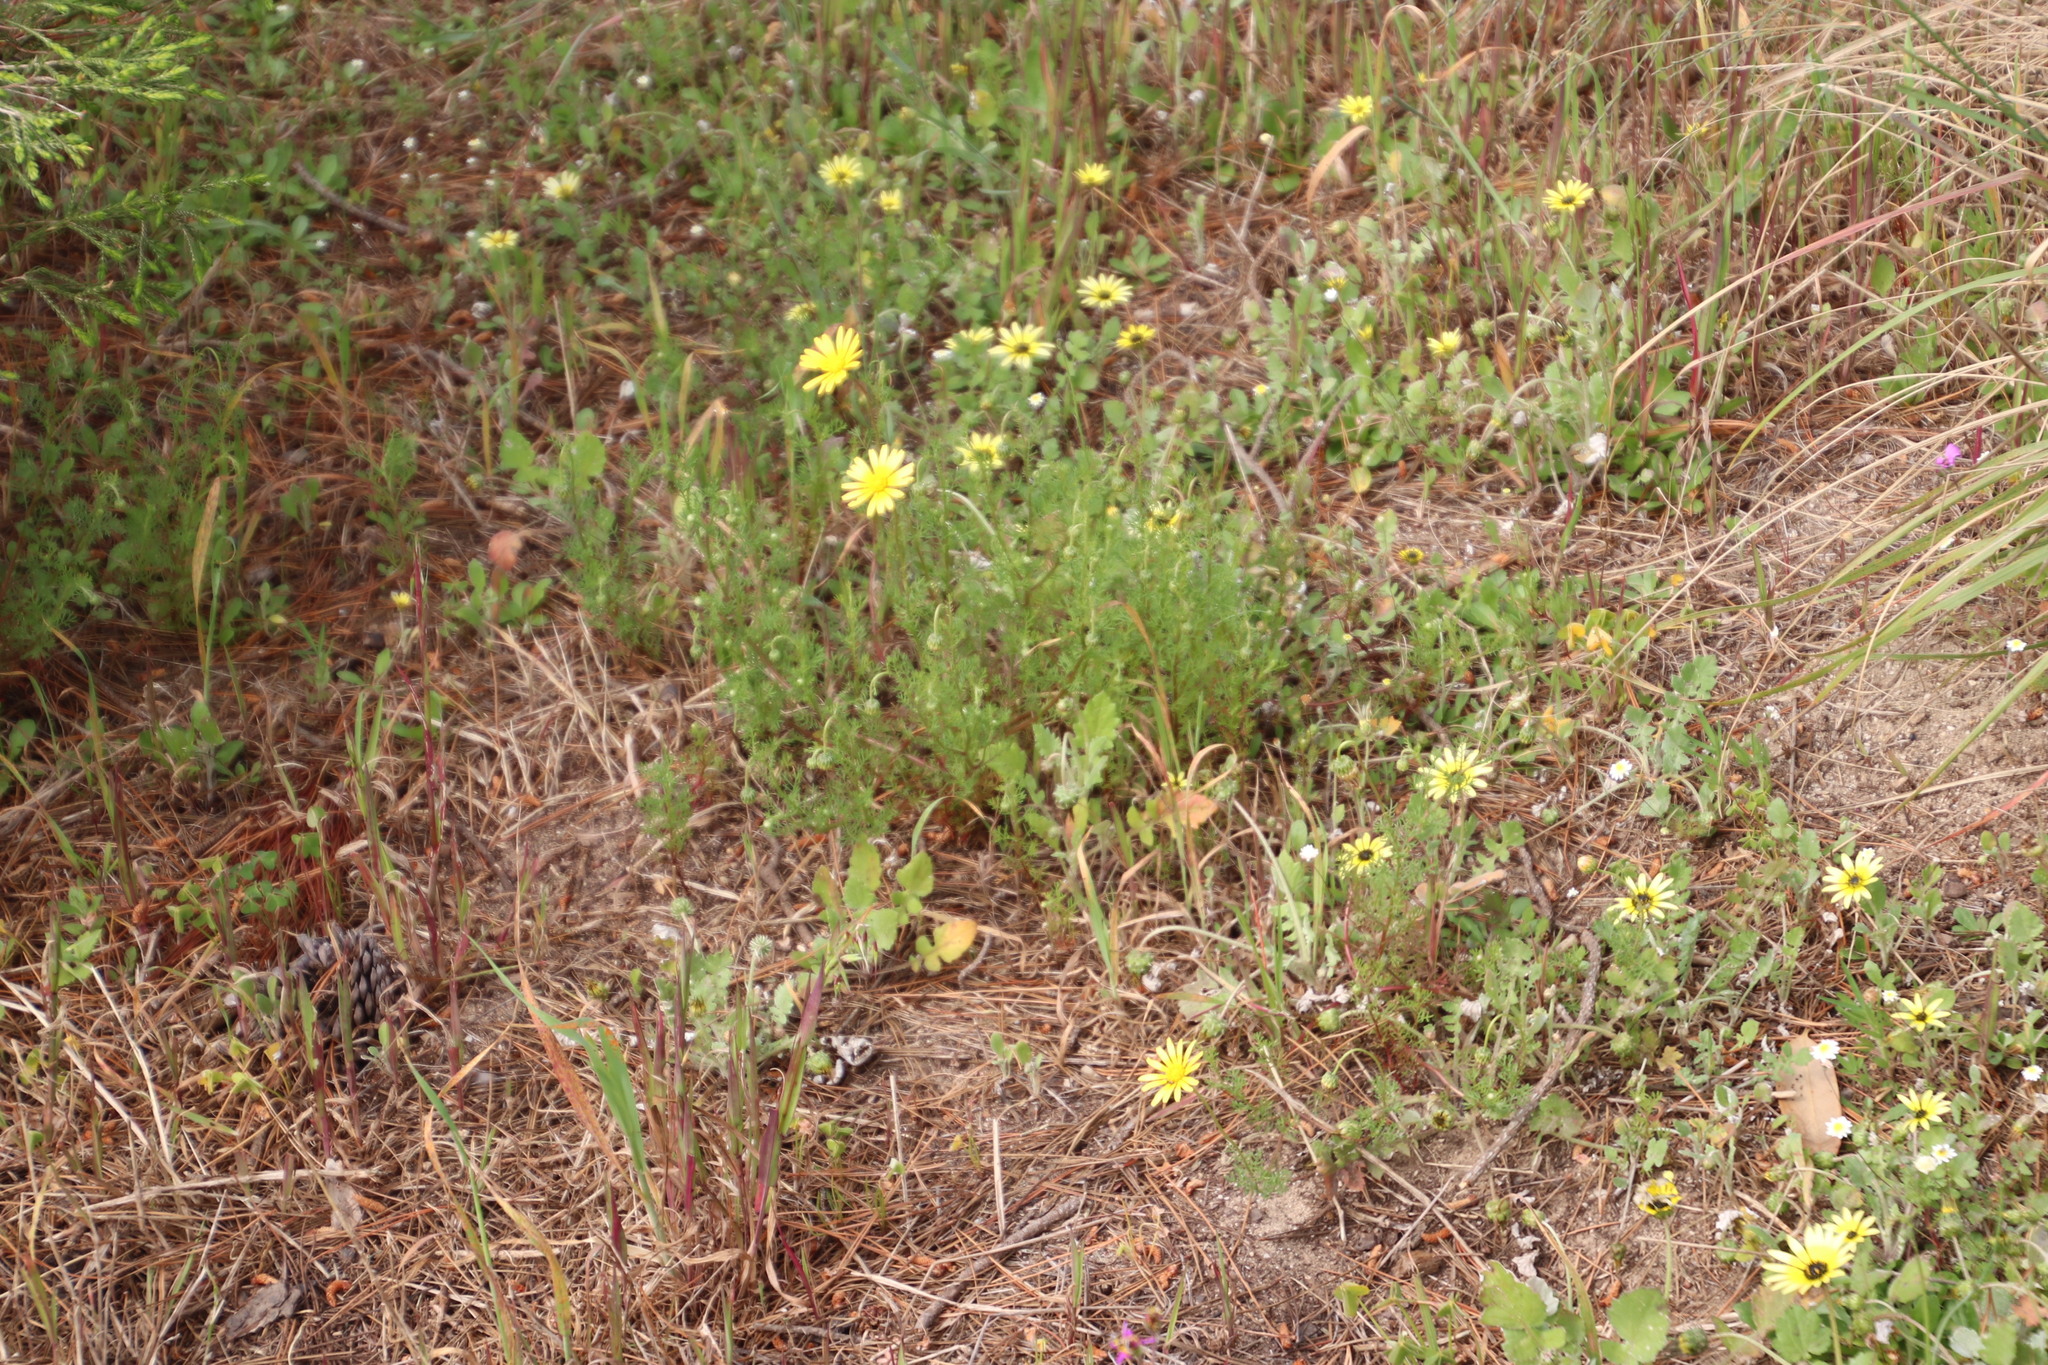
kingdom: Plantae
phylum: Tracheophyta
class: Magnoliopsida
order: Asterales
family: Asteraceae
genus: Ursinia
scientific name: Ursinia anthemoides
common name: Ursinia
